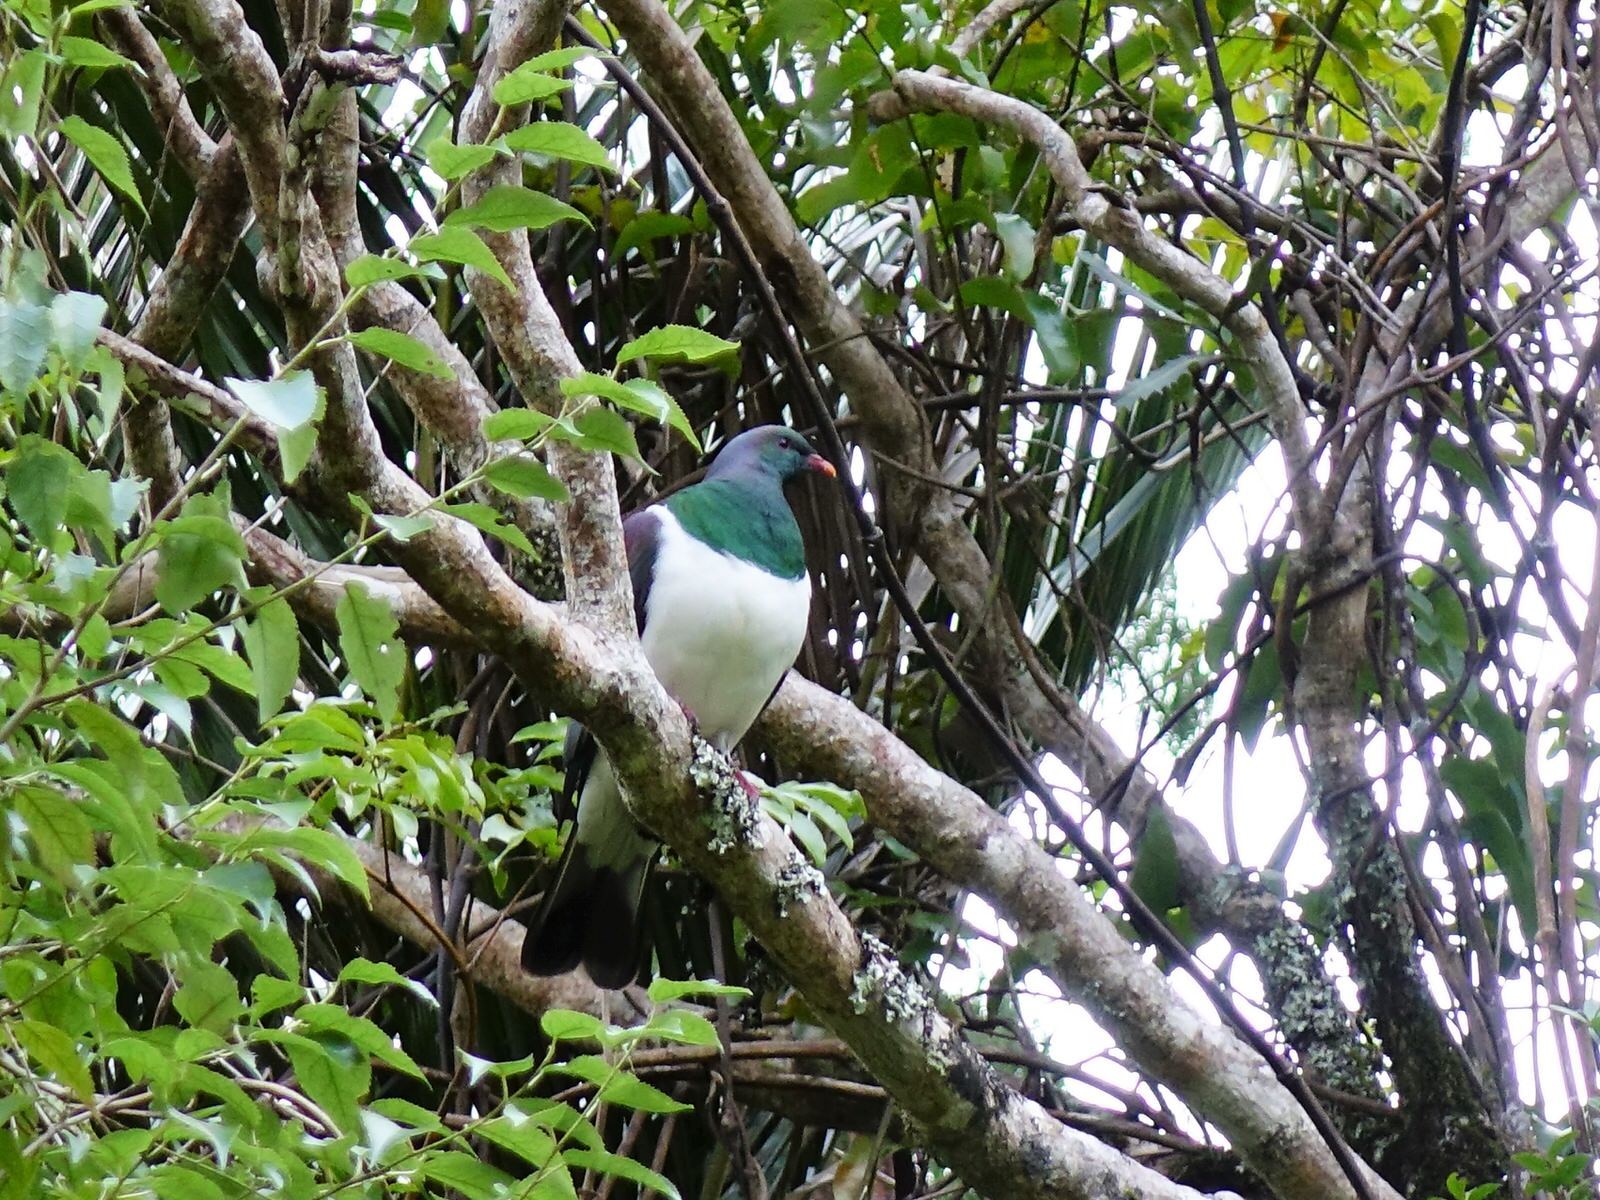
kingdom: Animalia
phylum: Chordata
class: Aves
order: Columbiformes
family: Columbidae
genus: Hemiphaga
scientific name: Hemiphaga novaeseelandiae
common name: New zealand pigeon
